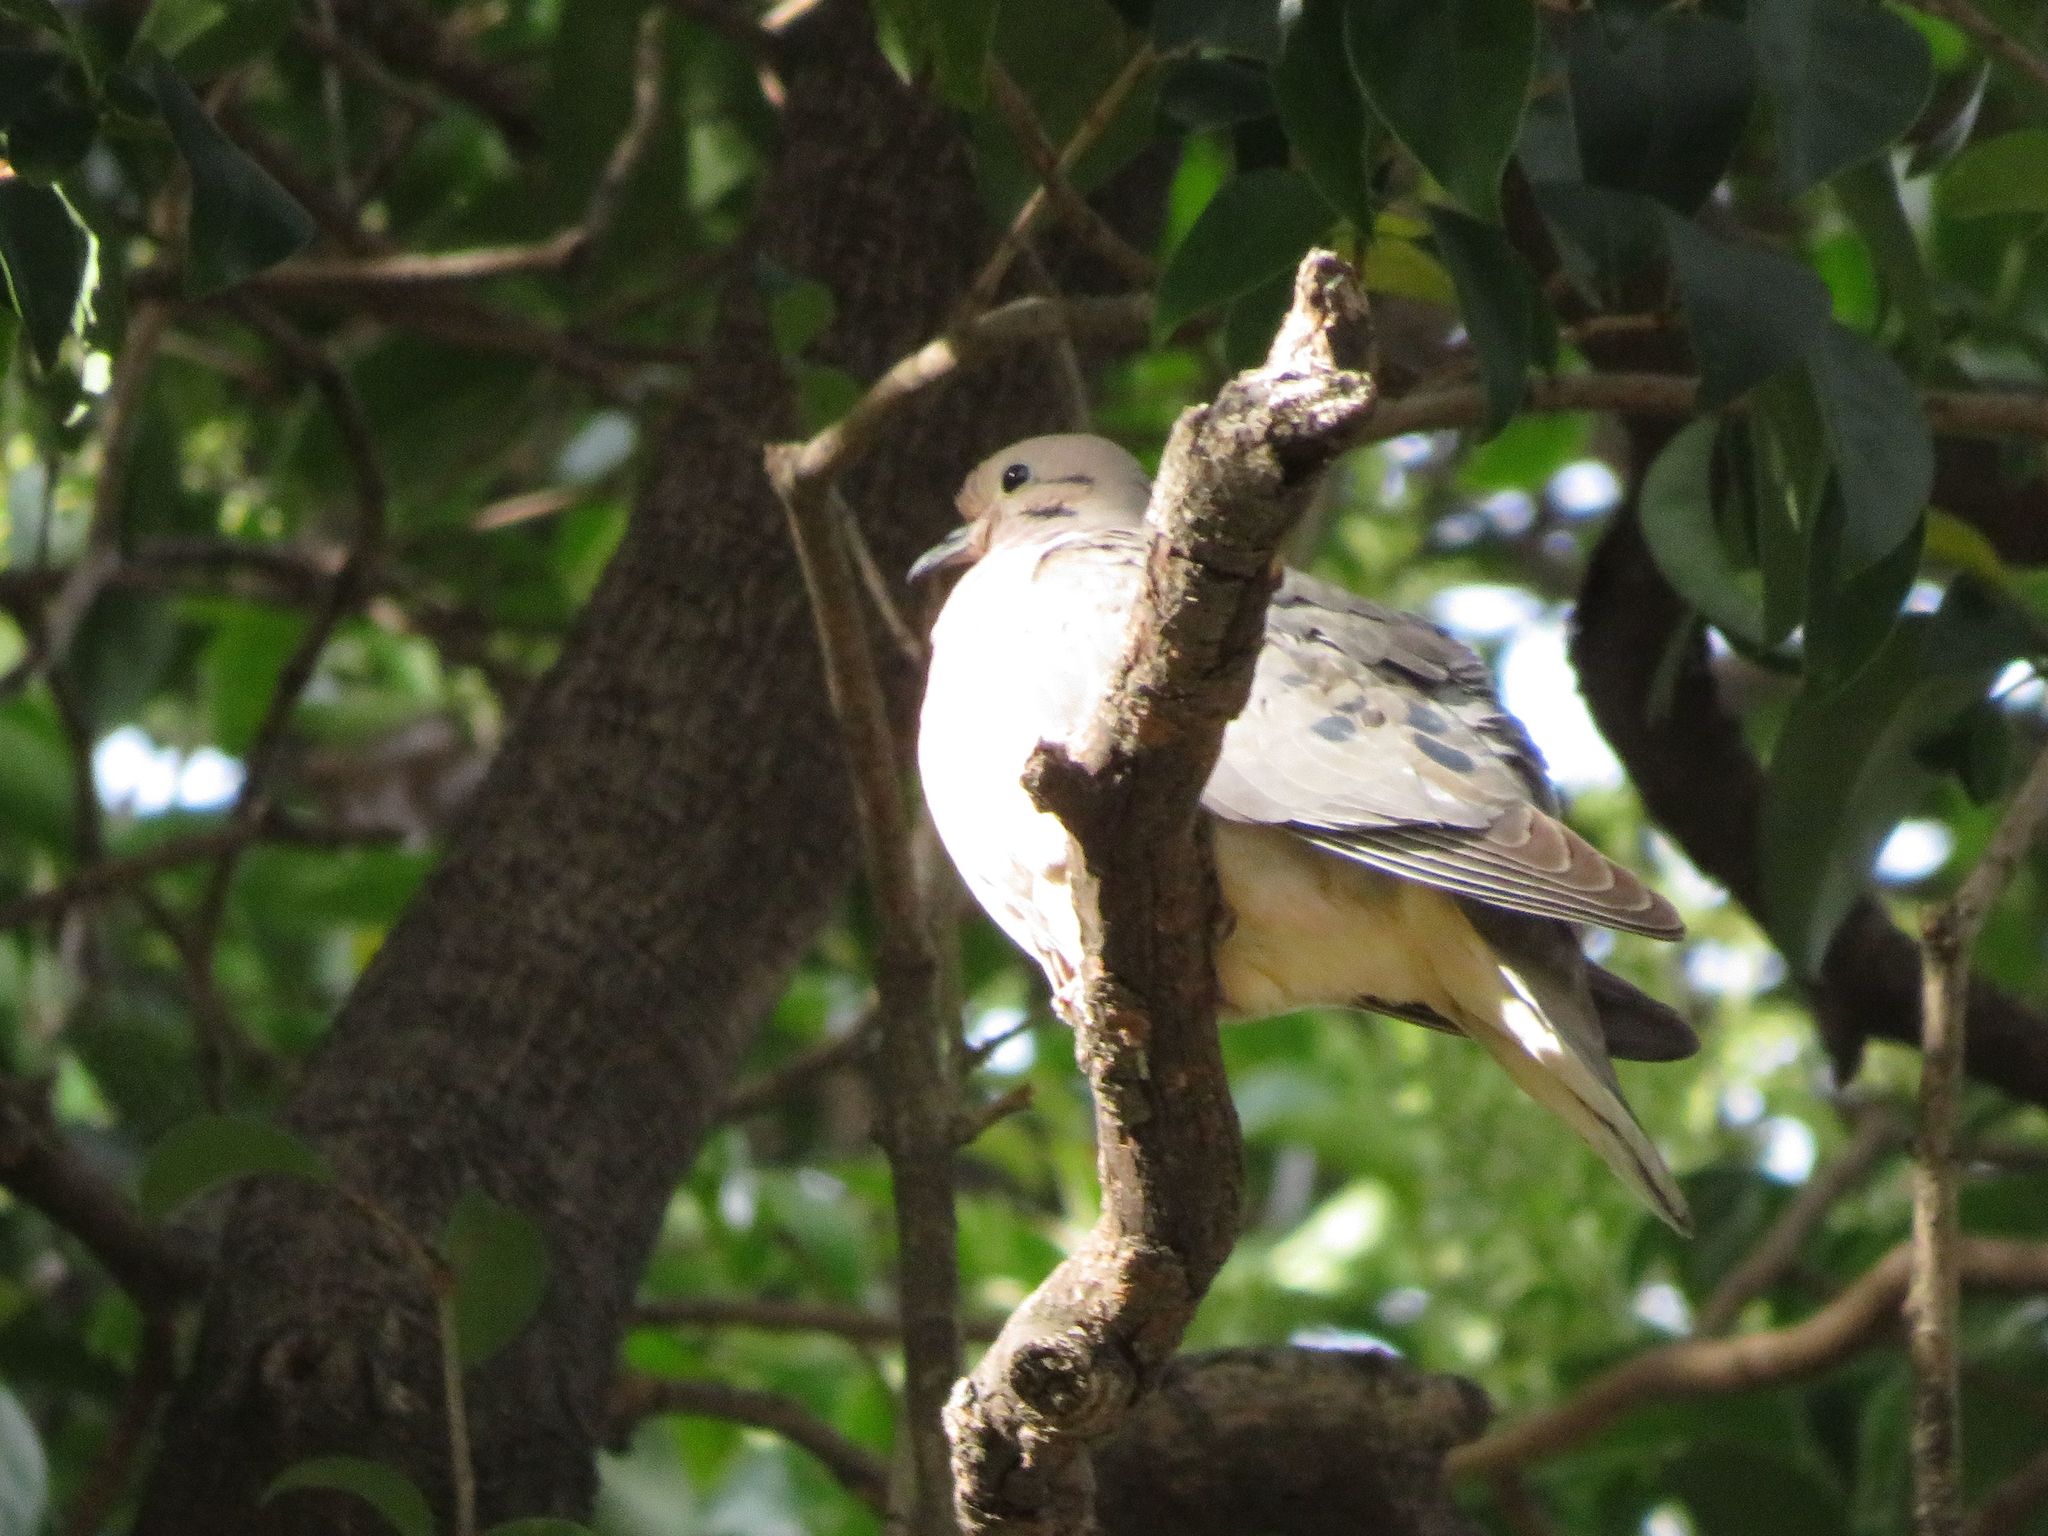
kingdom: Animalia
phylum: Chordata
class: Aves
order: Columbiformes
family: Columbidae
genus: Zenaida
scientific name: Zenaida auriculata
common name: Eared dove
